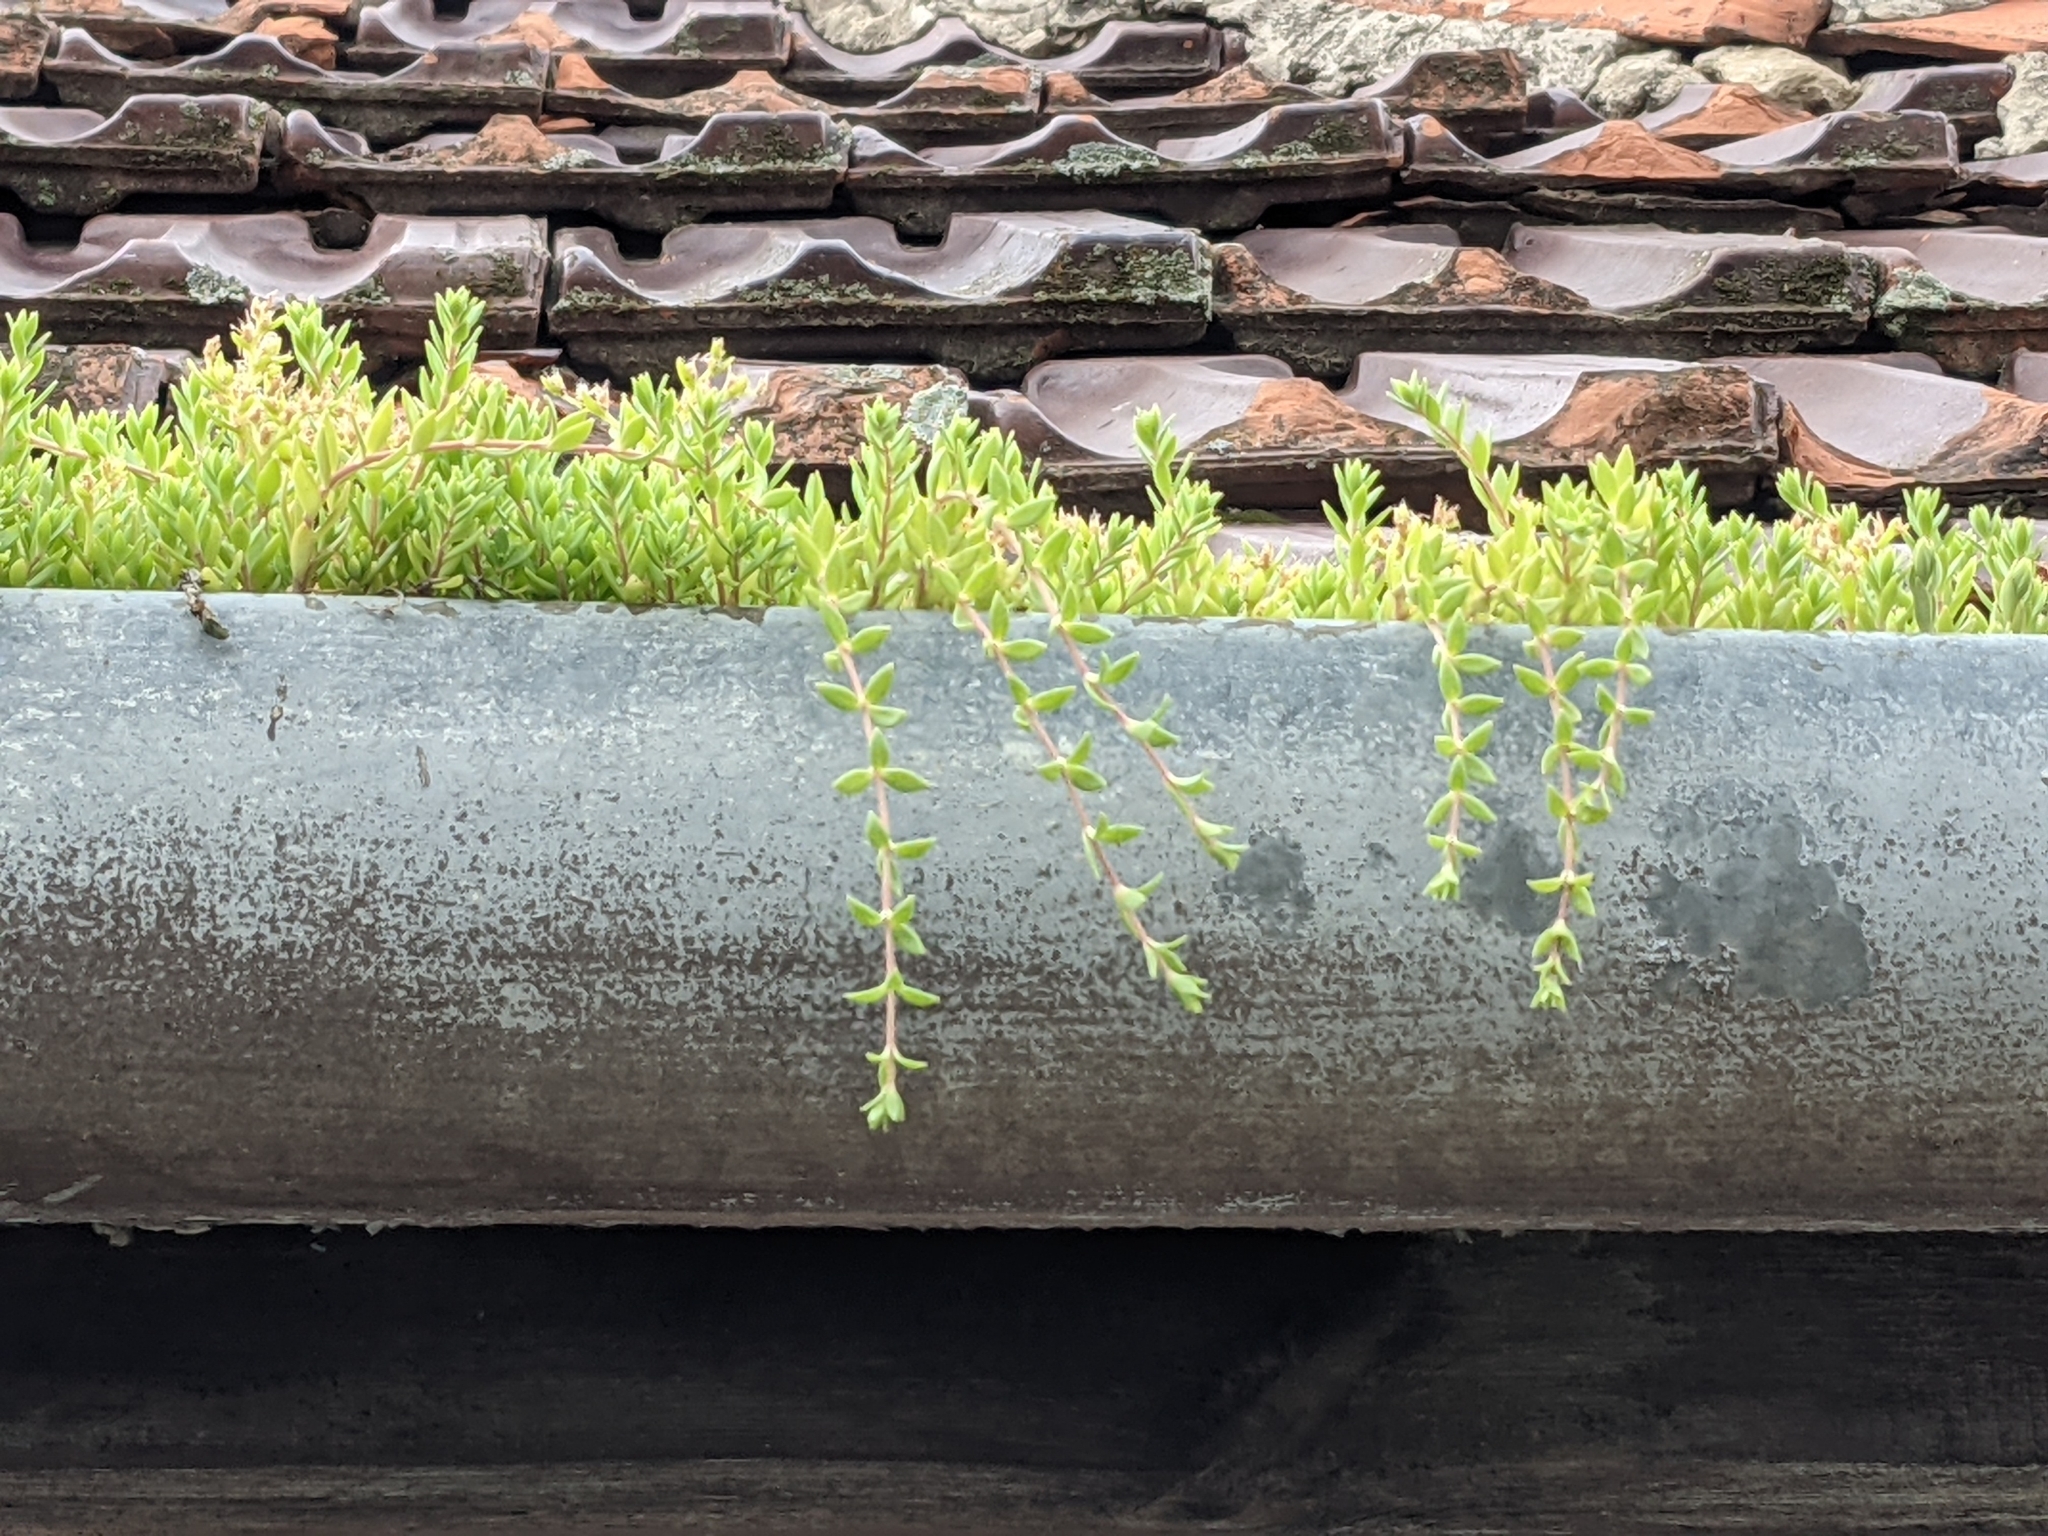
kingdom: Plantae
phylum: Tracheophyta
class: Magnoliopsida
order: Saxifragales
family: Crassulaceae
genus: Sedum
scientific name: Sedum sarmentosum
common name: Stringy stonecrop
